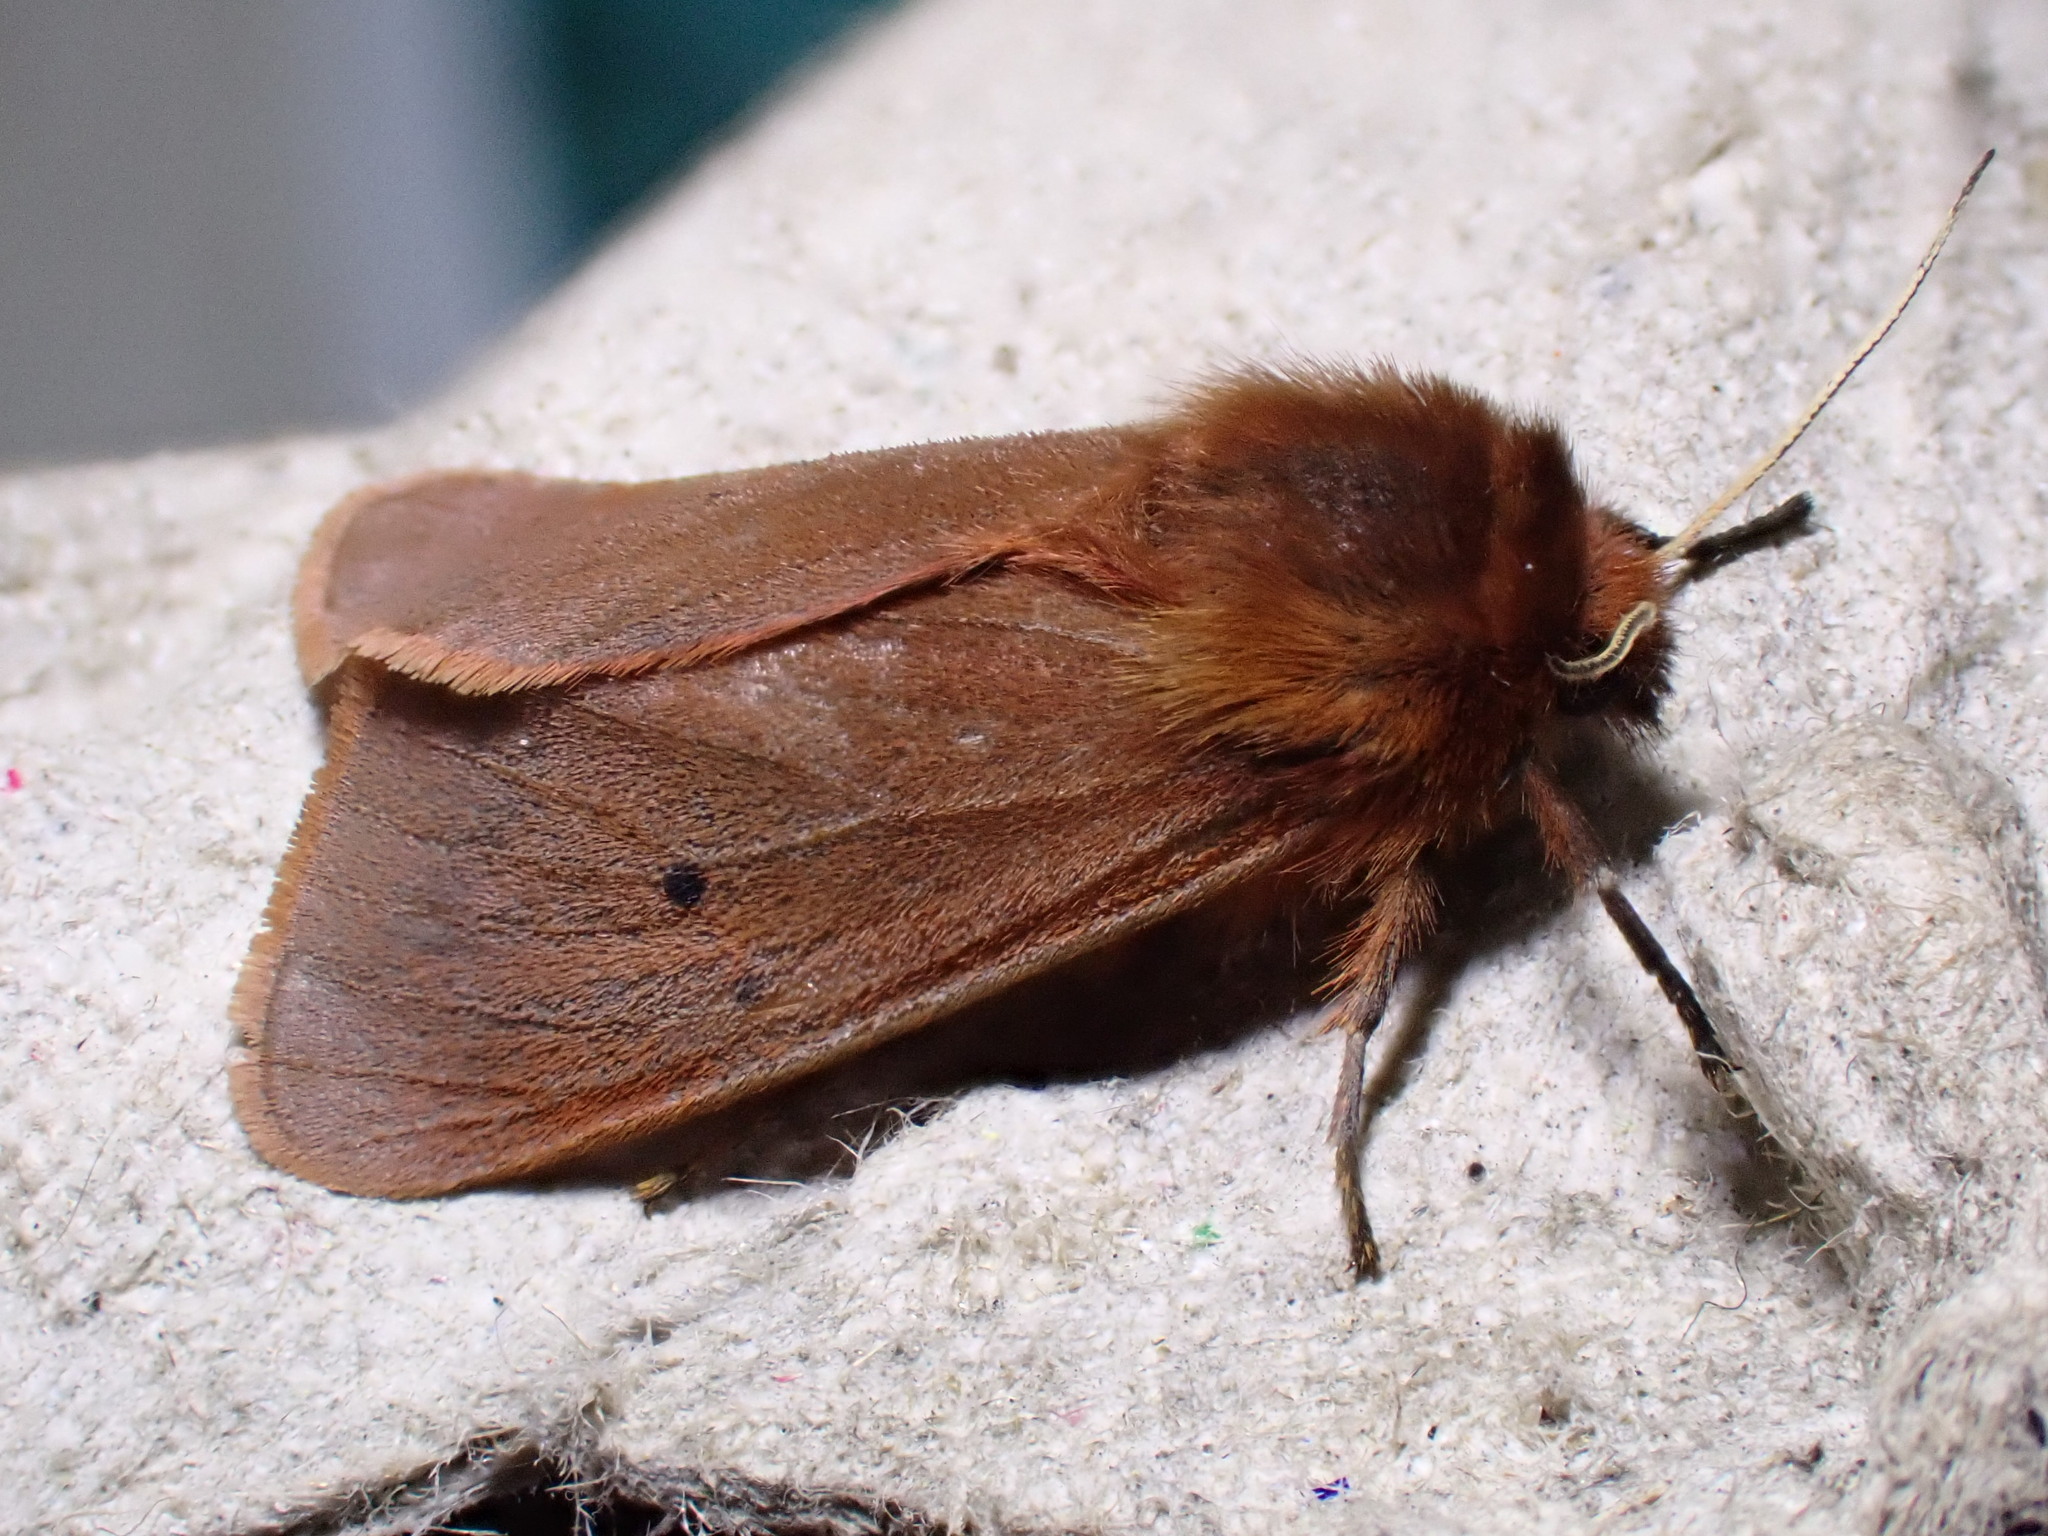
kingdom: Animalia
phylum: Arthropoda
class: Insecta
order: Lepidoptera
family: Erebidae
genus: Phragmatobia
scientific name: Phragmatobia fuliginosa
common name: Ruby tiger
